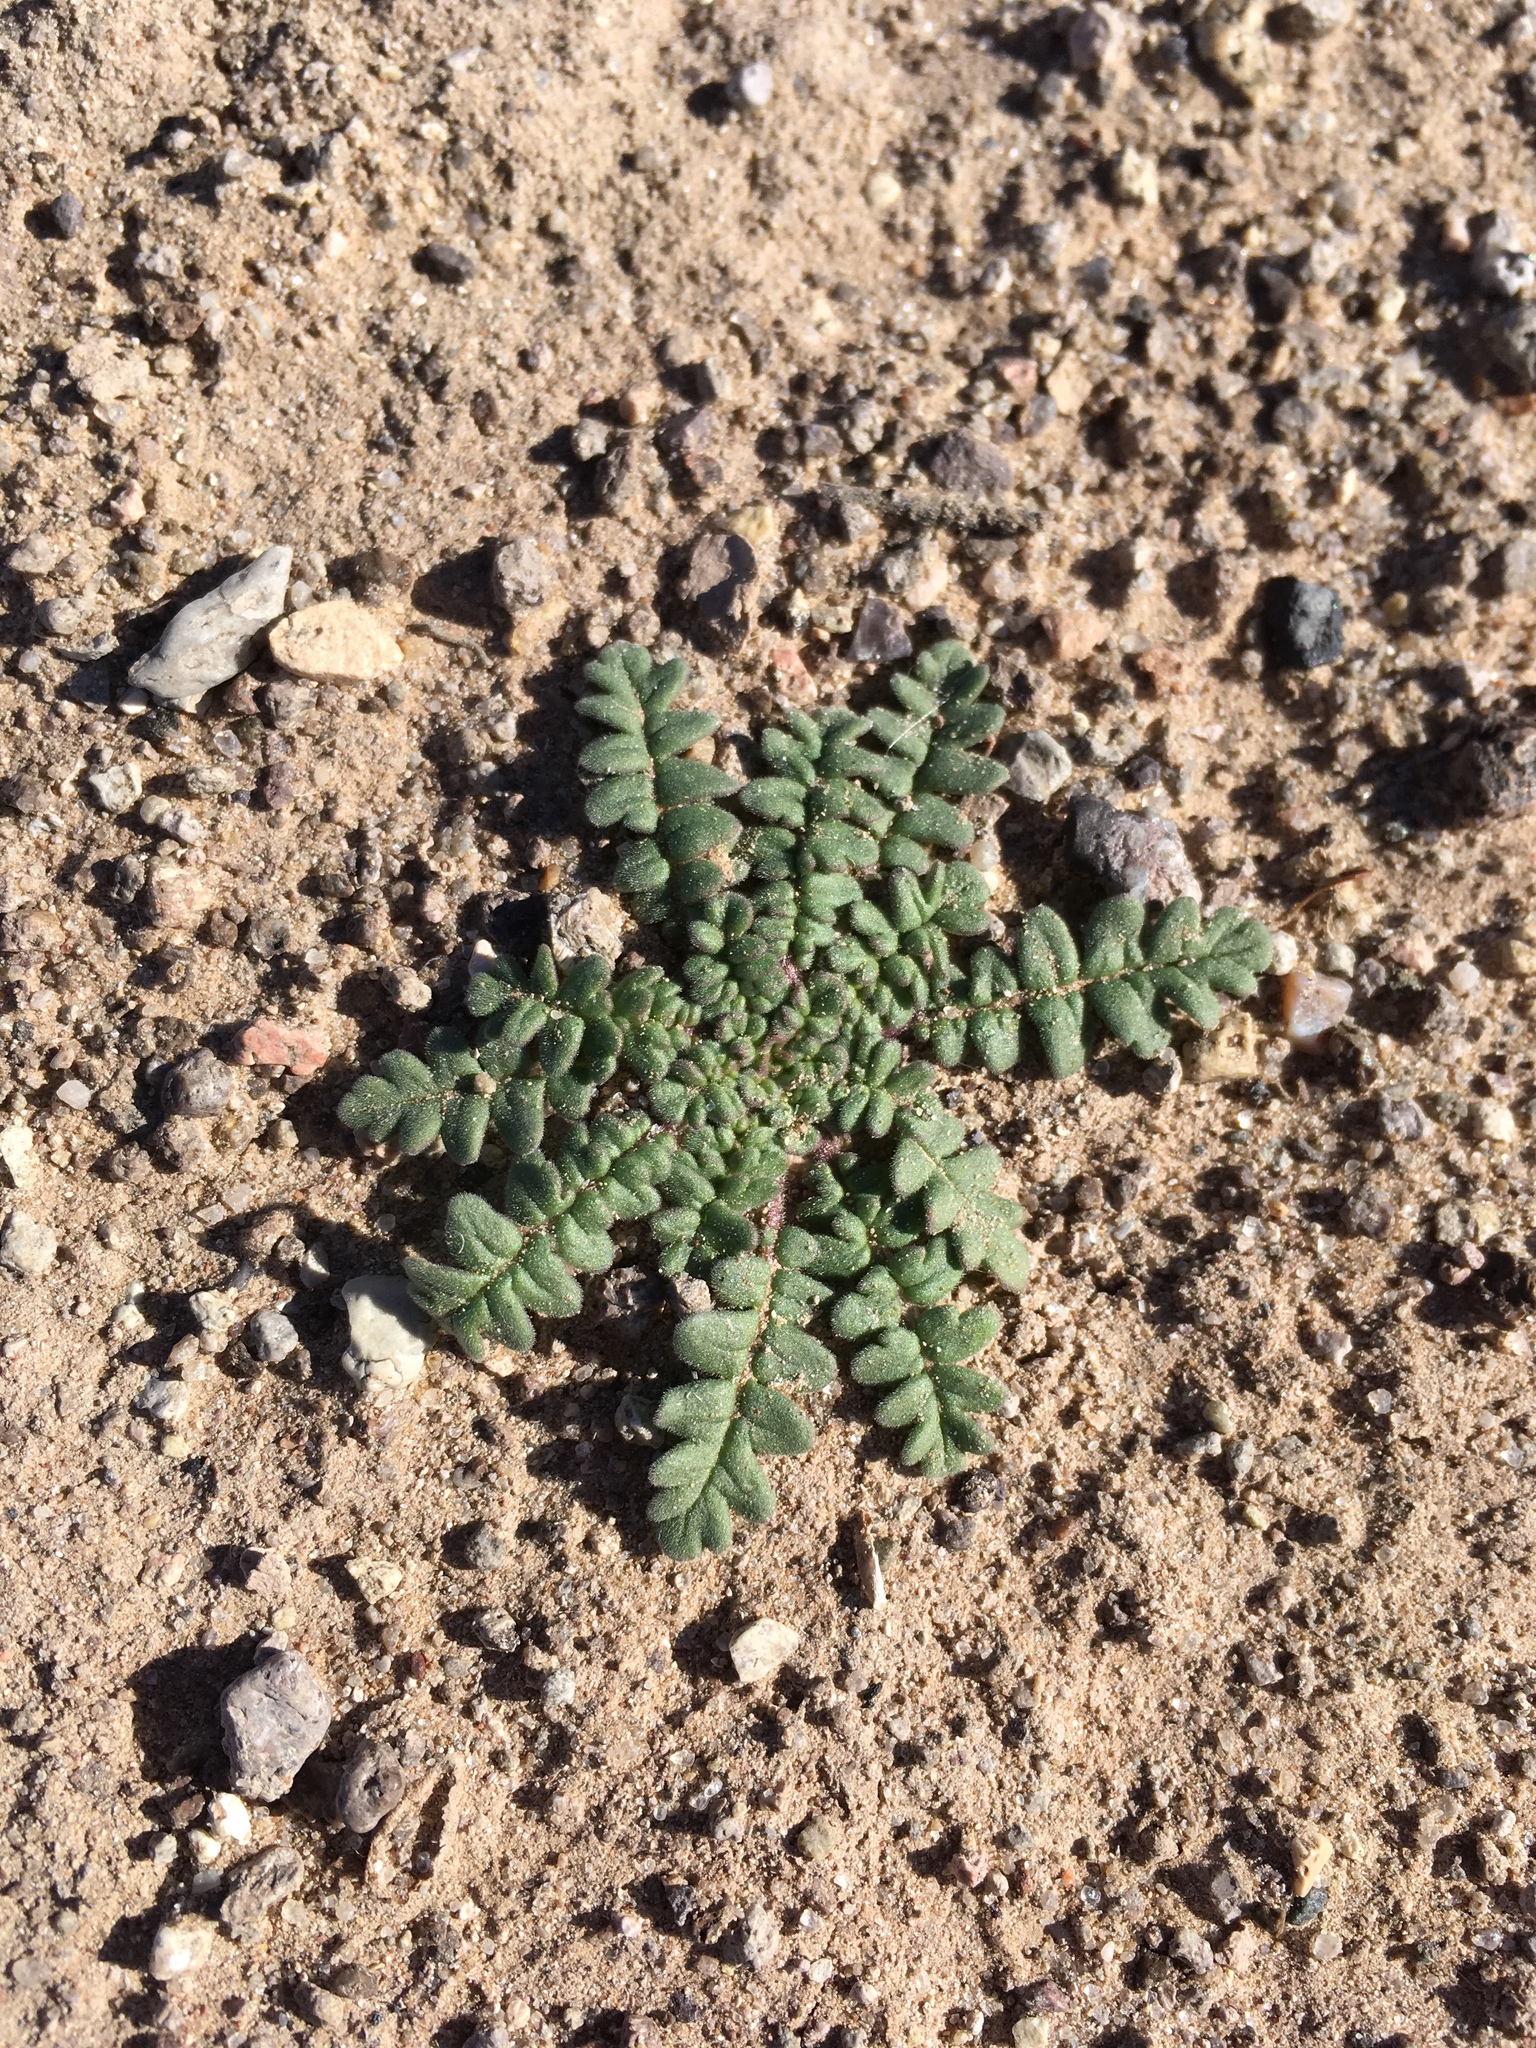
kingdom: Plantae
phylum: Tracheophyta
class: Magnoliopsida
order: Boraginales
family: Hydrophyllaceae
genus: Phacelia
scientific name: Phacelia arizonica
